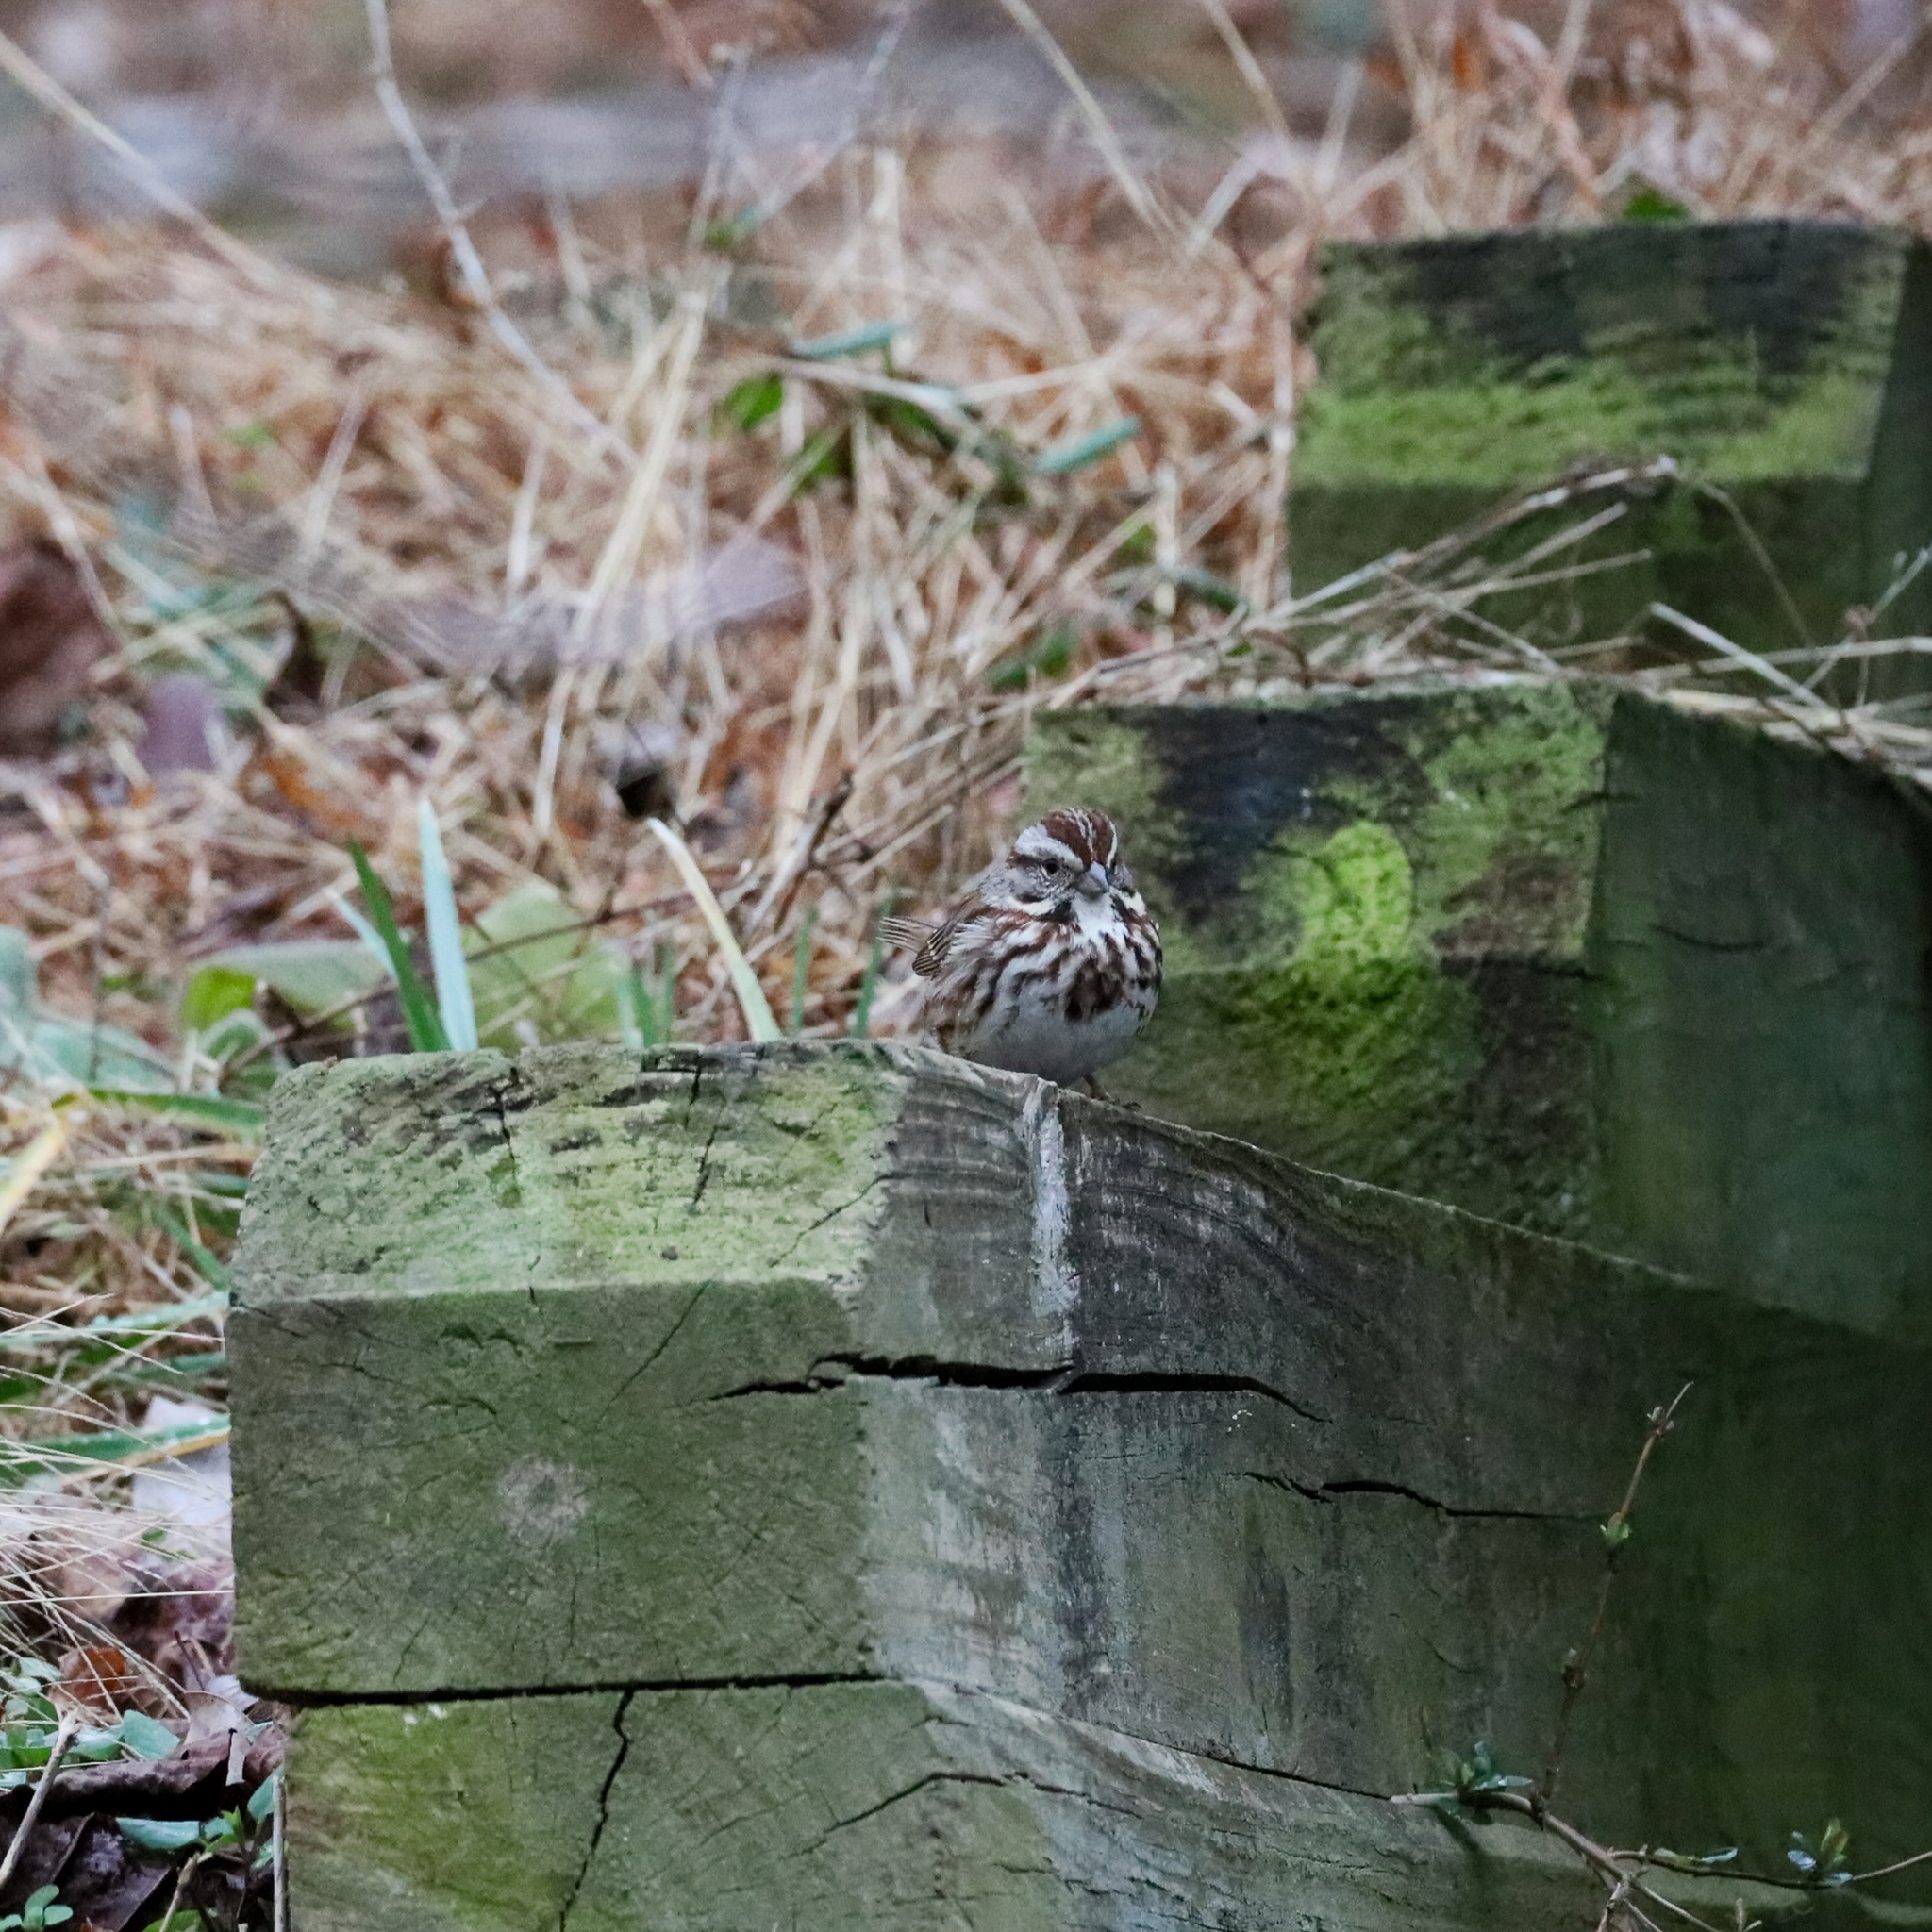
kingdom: Animalia
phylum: Chordata
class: Aves
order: Passeriformes
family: Passerellidae
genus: Melospiza
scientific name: Melospiza melodia
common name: Song sparrow
